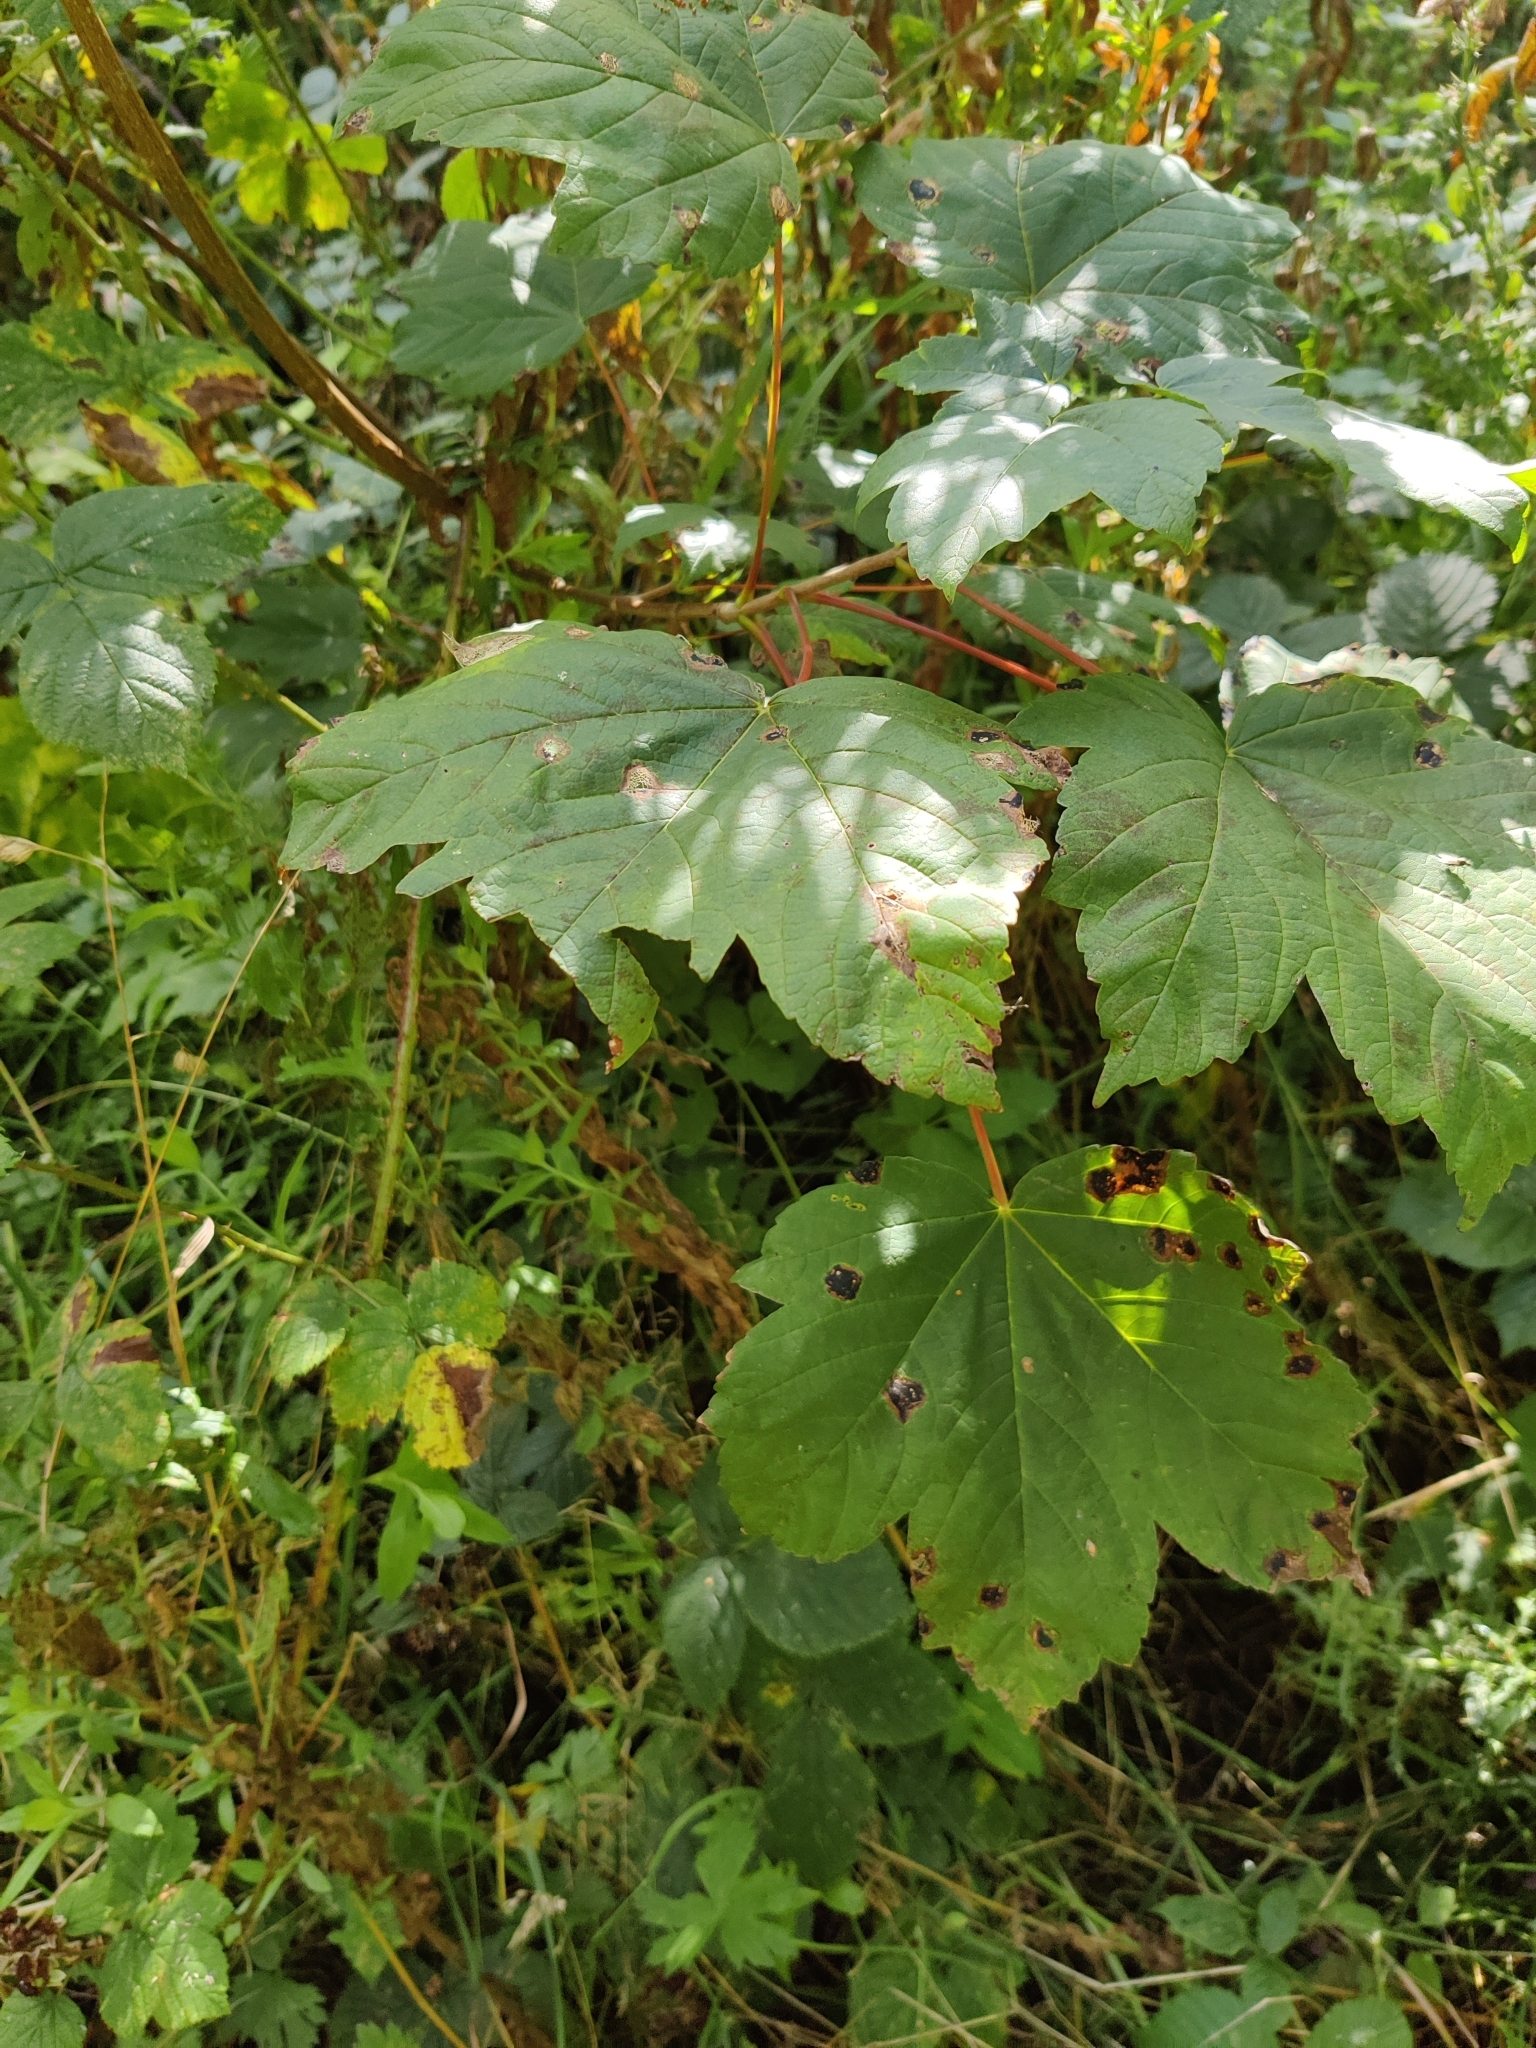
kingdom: Plantae
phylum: Tracheophyta
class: Magnoliopsida
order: Sapindales
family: Sapindaceae
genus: Acer
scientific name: Acer pseudoplatanus
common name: Sycamore
